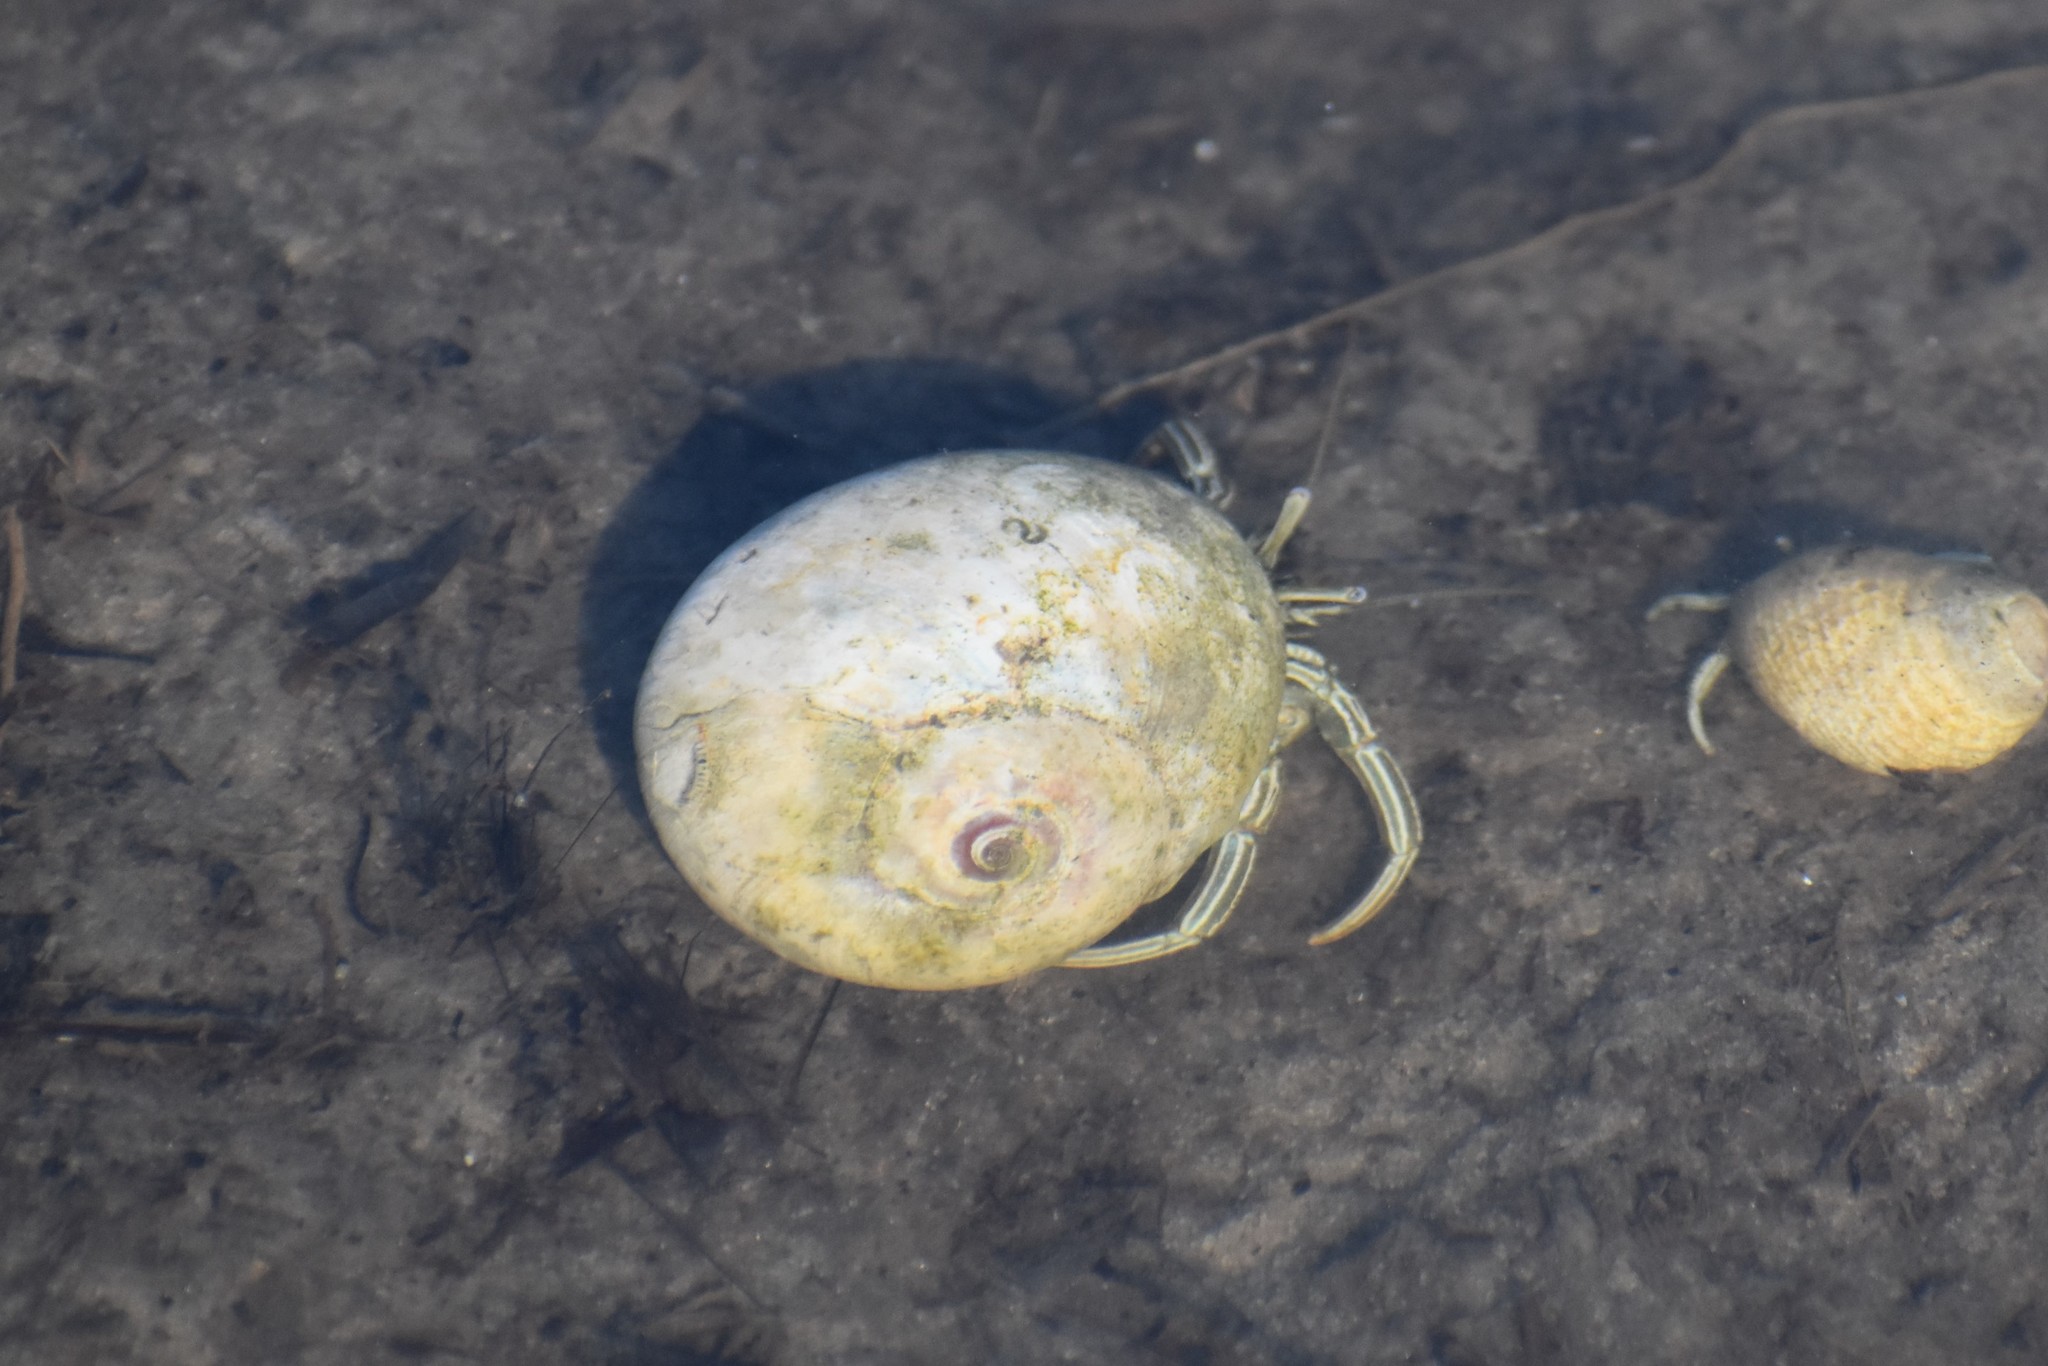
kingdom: Animalia
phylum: Arthropoda
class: Malacostraca
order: Decapoda
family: Diogenidae
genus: Clibanarius
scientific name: Clibanarius vittatus
